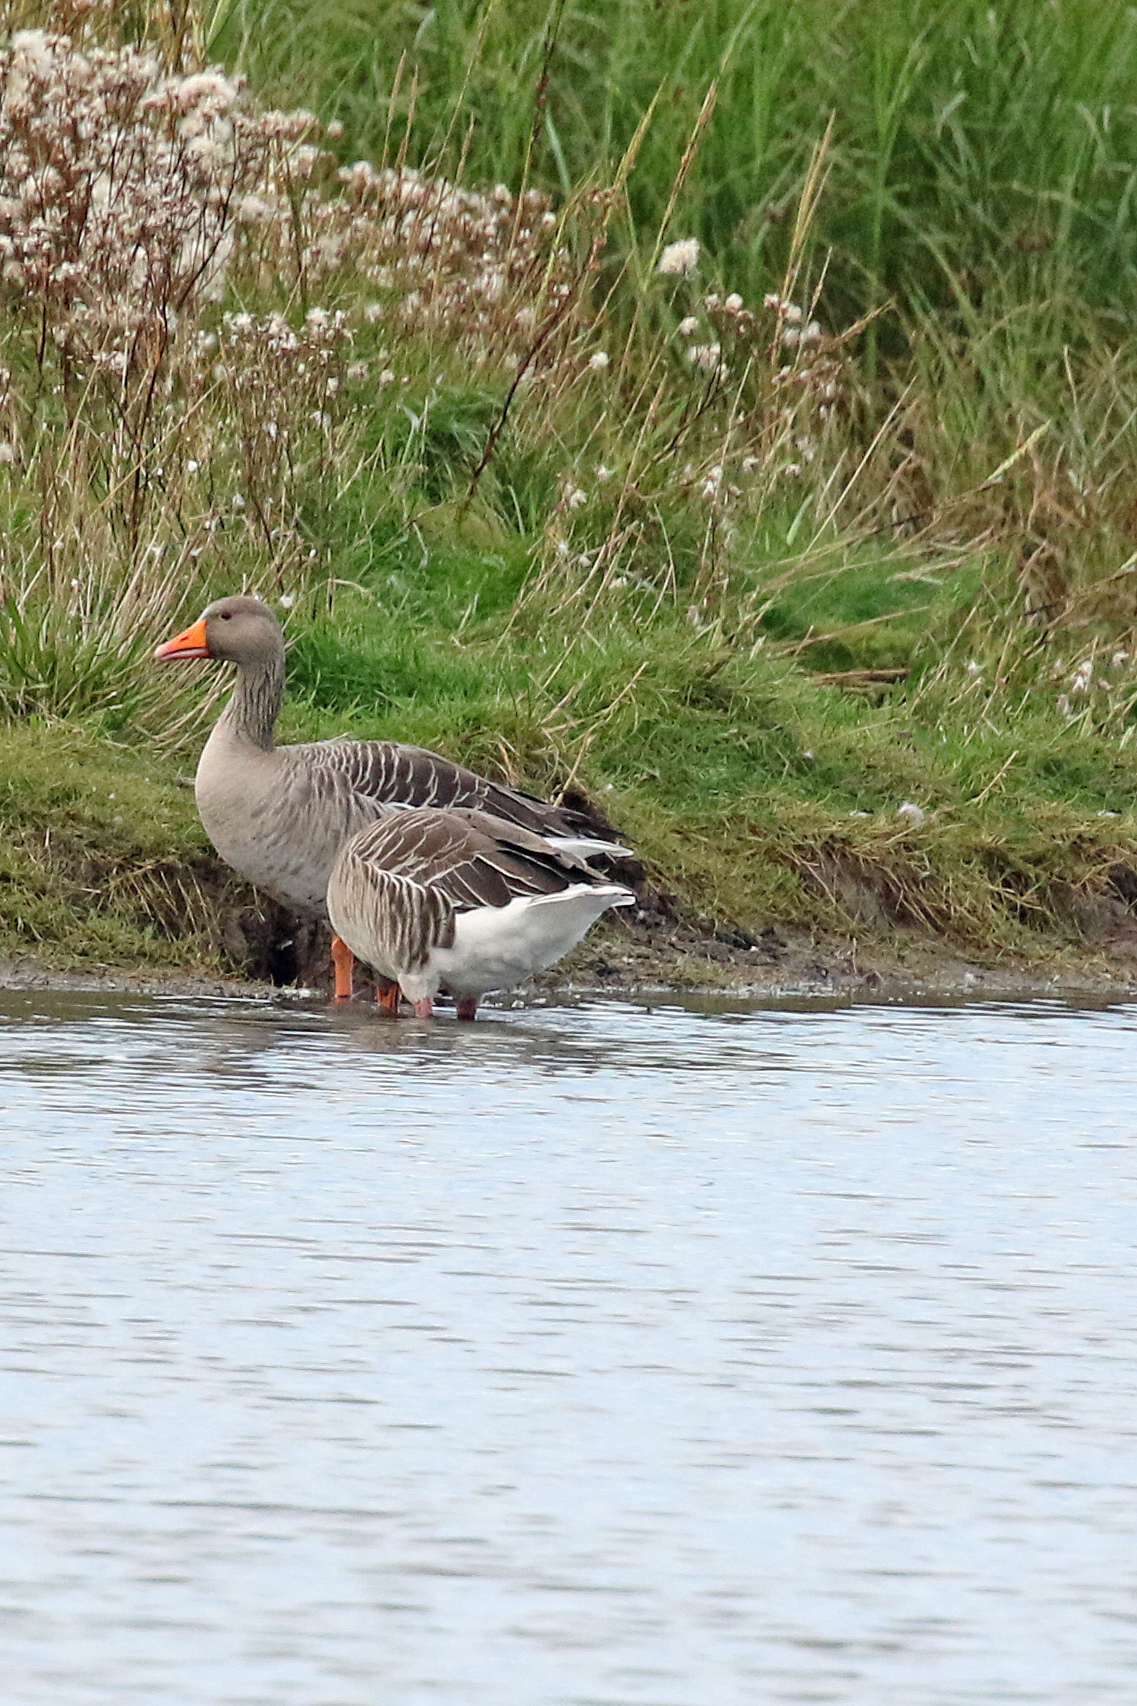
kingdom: Animalia
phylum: Chordata
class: Aves
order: Anseriformes
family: Anatidae
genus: Anser
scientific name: Anser anser
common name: Greylag goose
